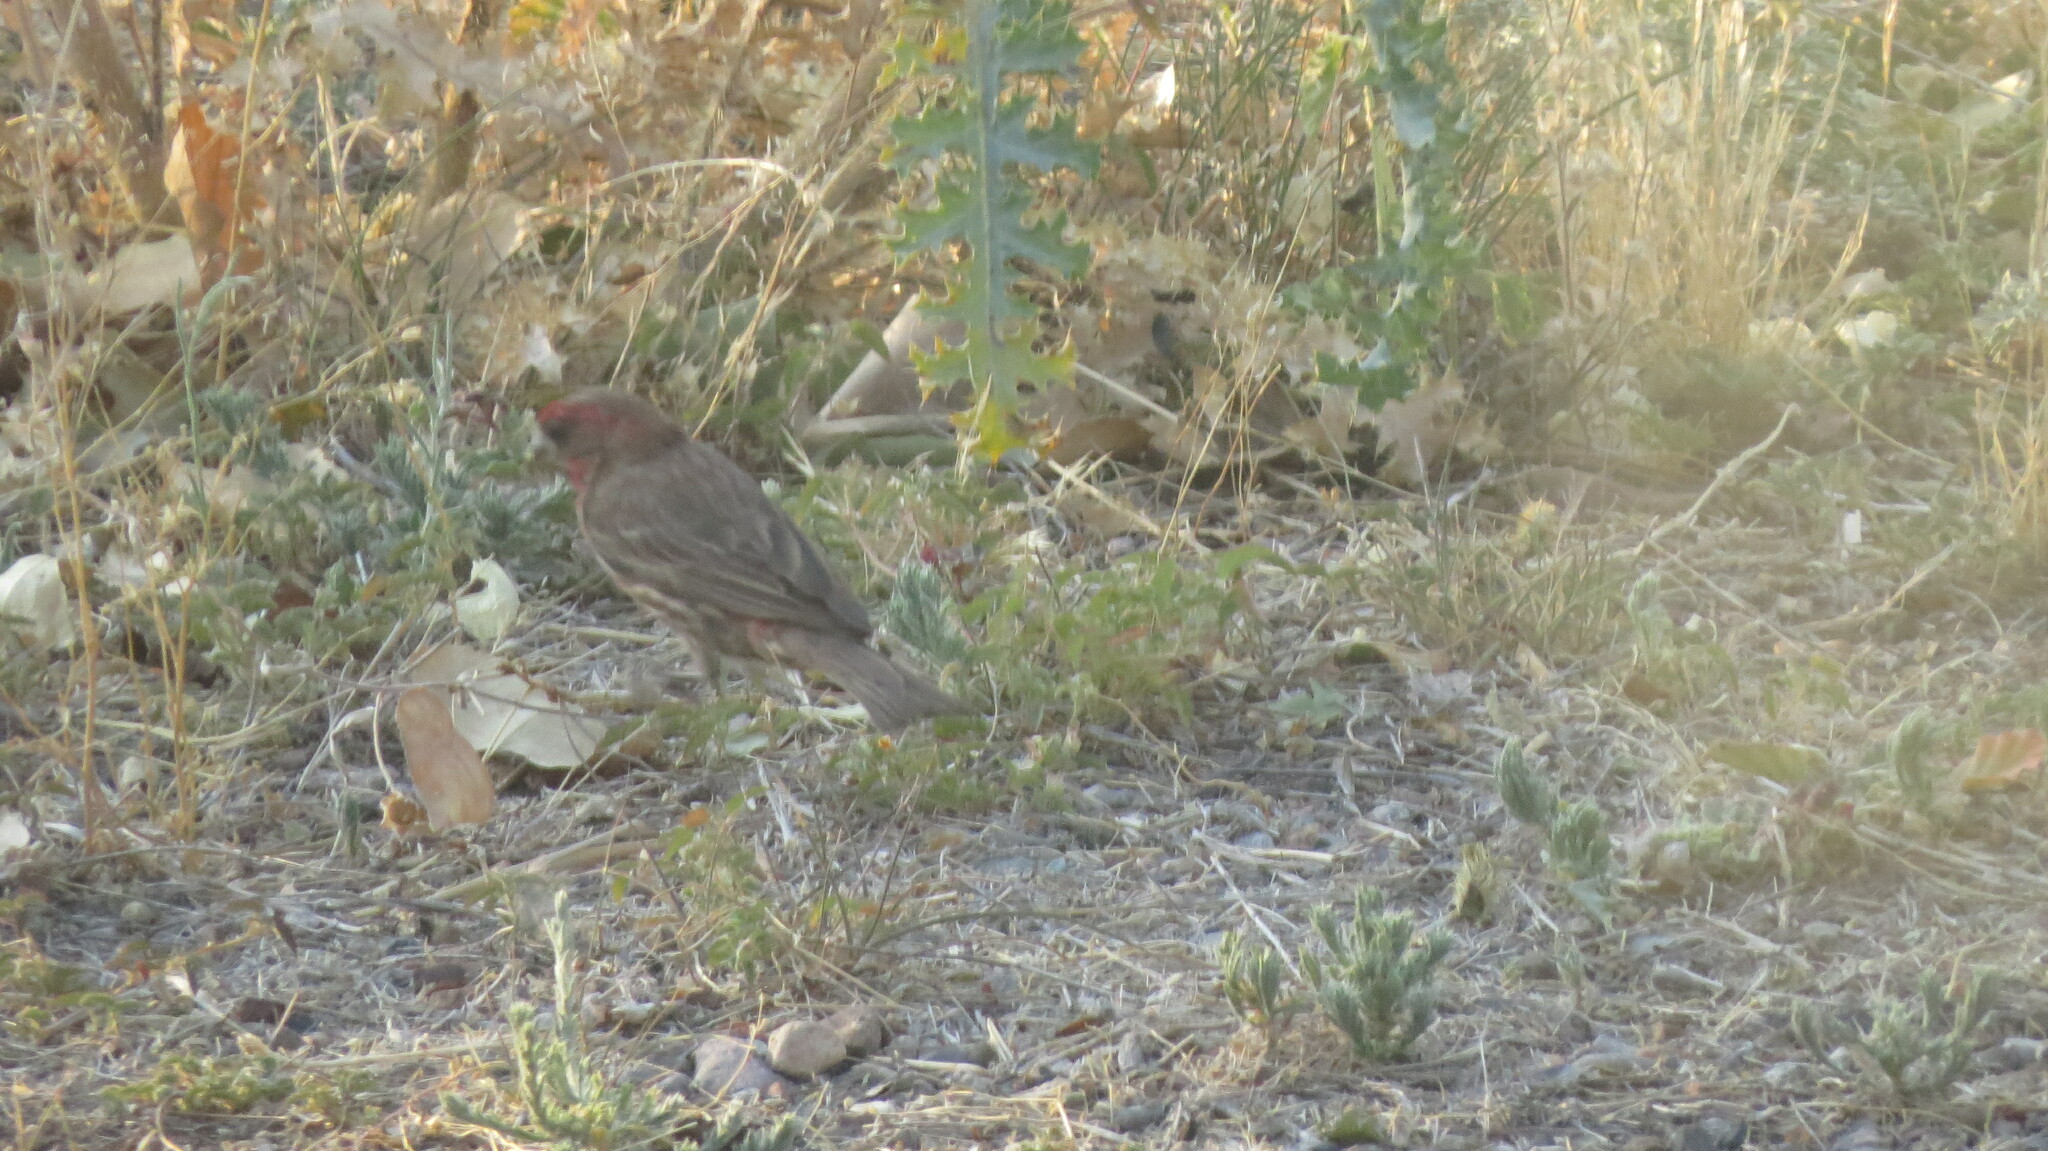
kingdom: Animalia
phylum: Chordata
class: Aves
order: Passeriformes
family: Fringillidae
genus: Haemorhous
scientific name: Haemorhous mexicanus
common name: House finch
